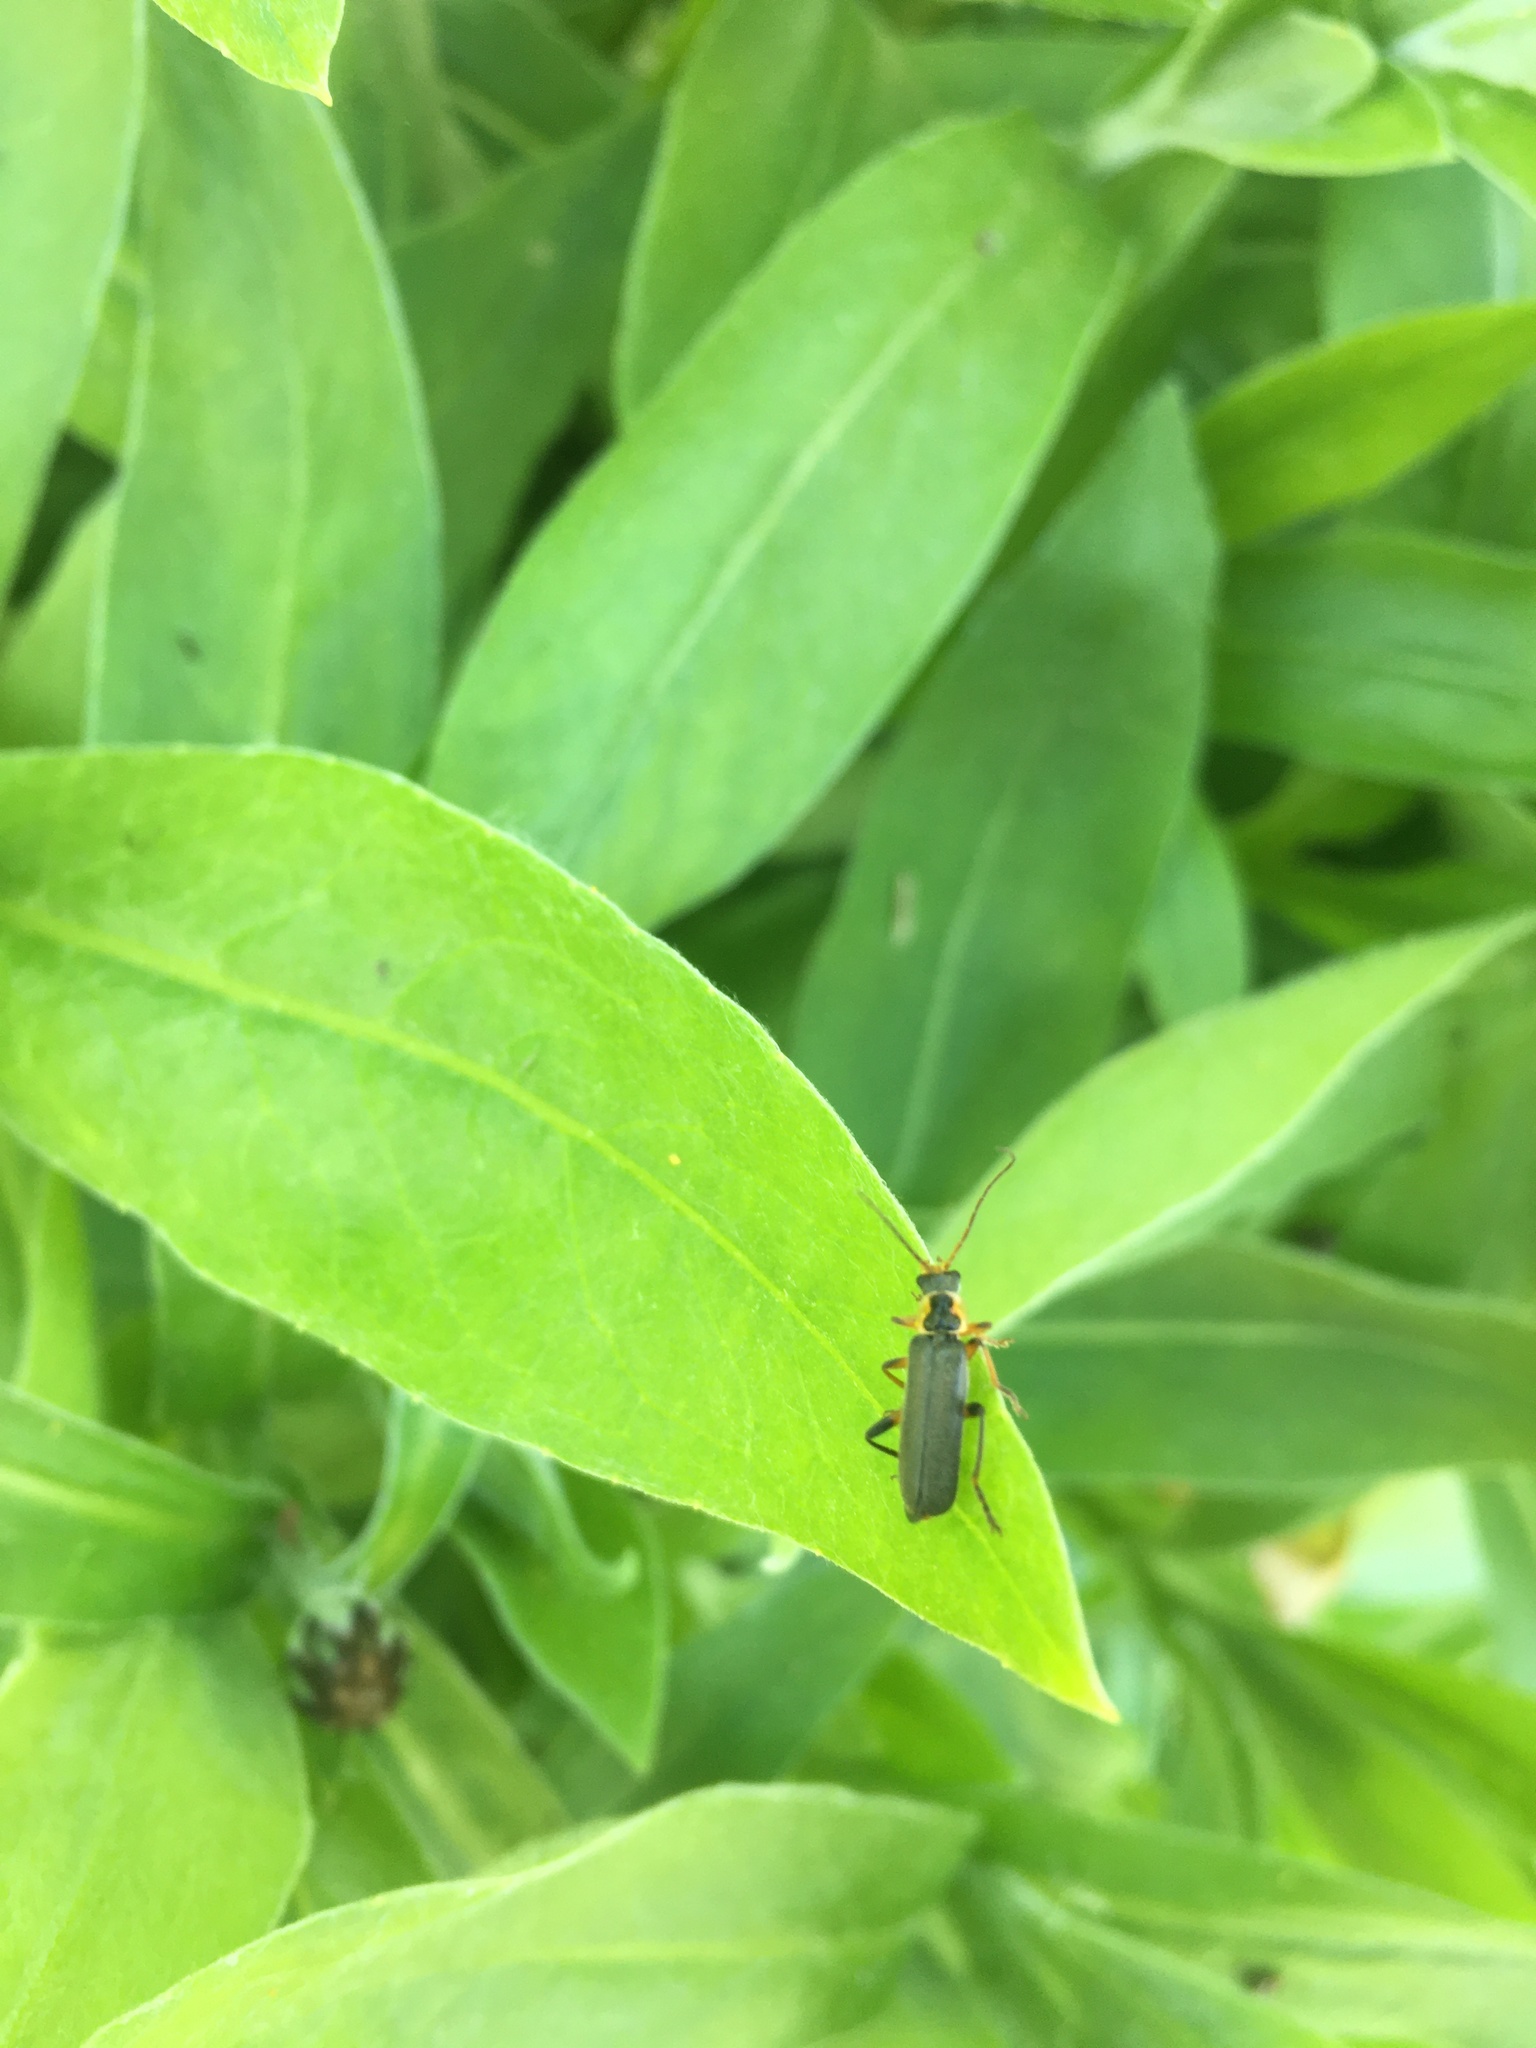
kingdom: Animalia
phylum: Arthropoda
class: Insecta
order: Coleoptera
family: Cantharidae
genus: Cantharis
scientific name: Cantharis nigricans
